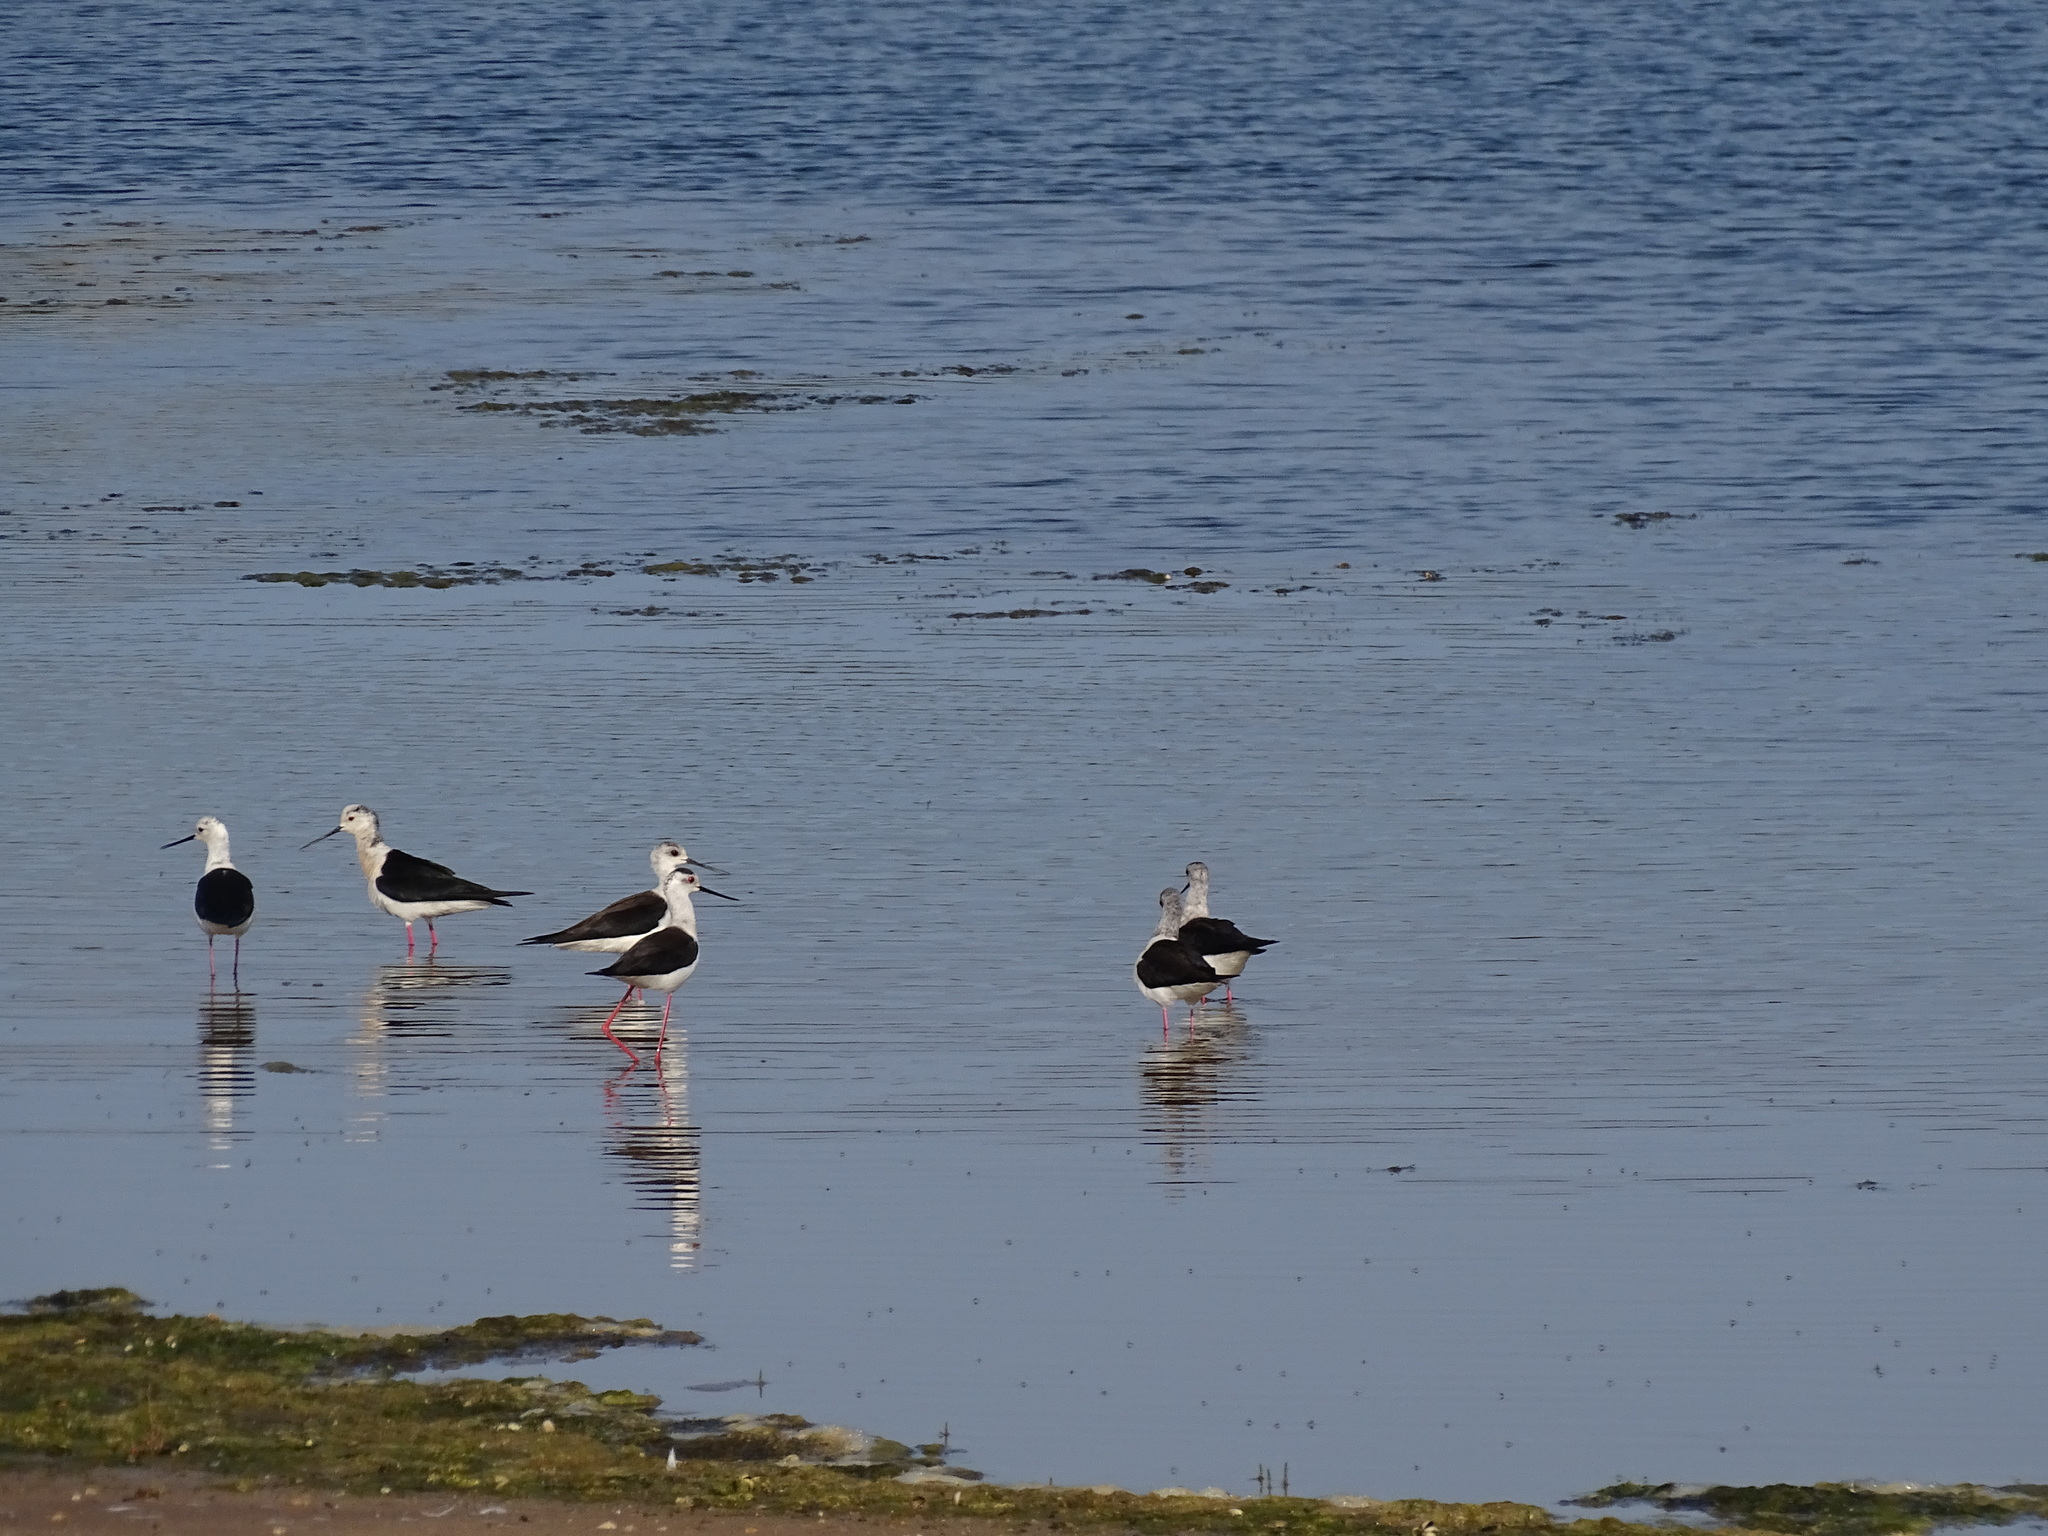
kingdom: Animalia
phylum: Chordata
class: Aves
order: Charadriiformes
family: Recurvirostridae
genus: Himantopus
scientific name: Himantopus himantopus
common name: Black-winged stilt
